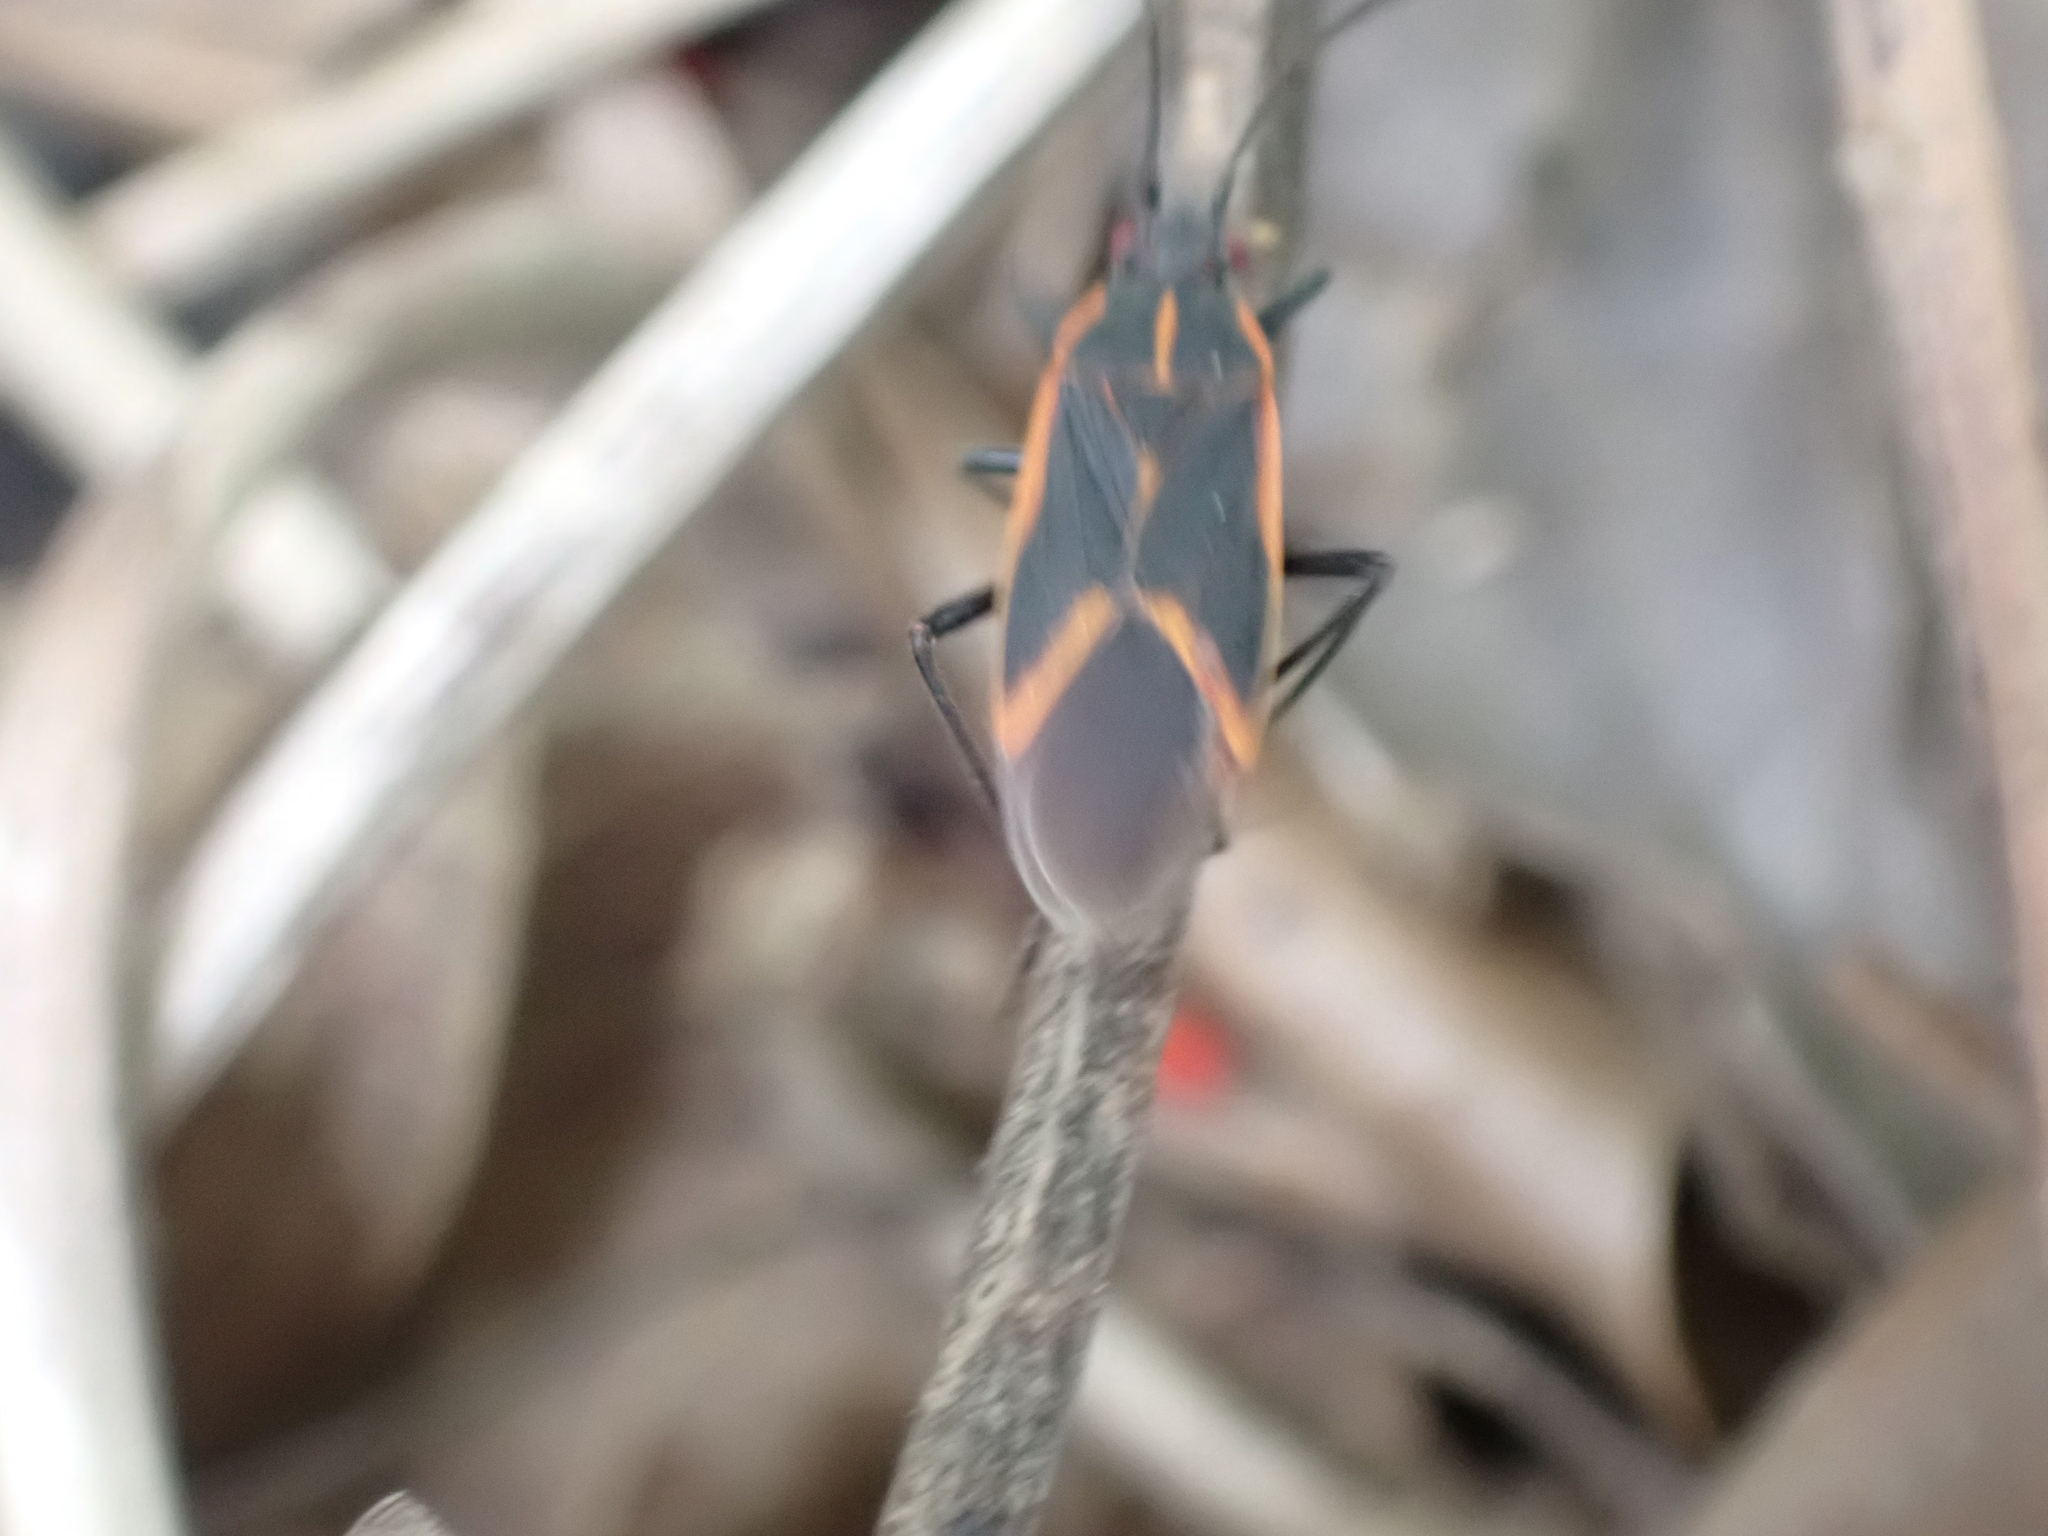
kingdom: Animalia
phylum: Arthropoda
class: Insecta
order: Hemiptera
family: Rhopalidae
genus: Boisea
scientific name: Boisea trivittata
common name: Boxelder bug
